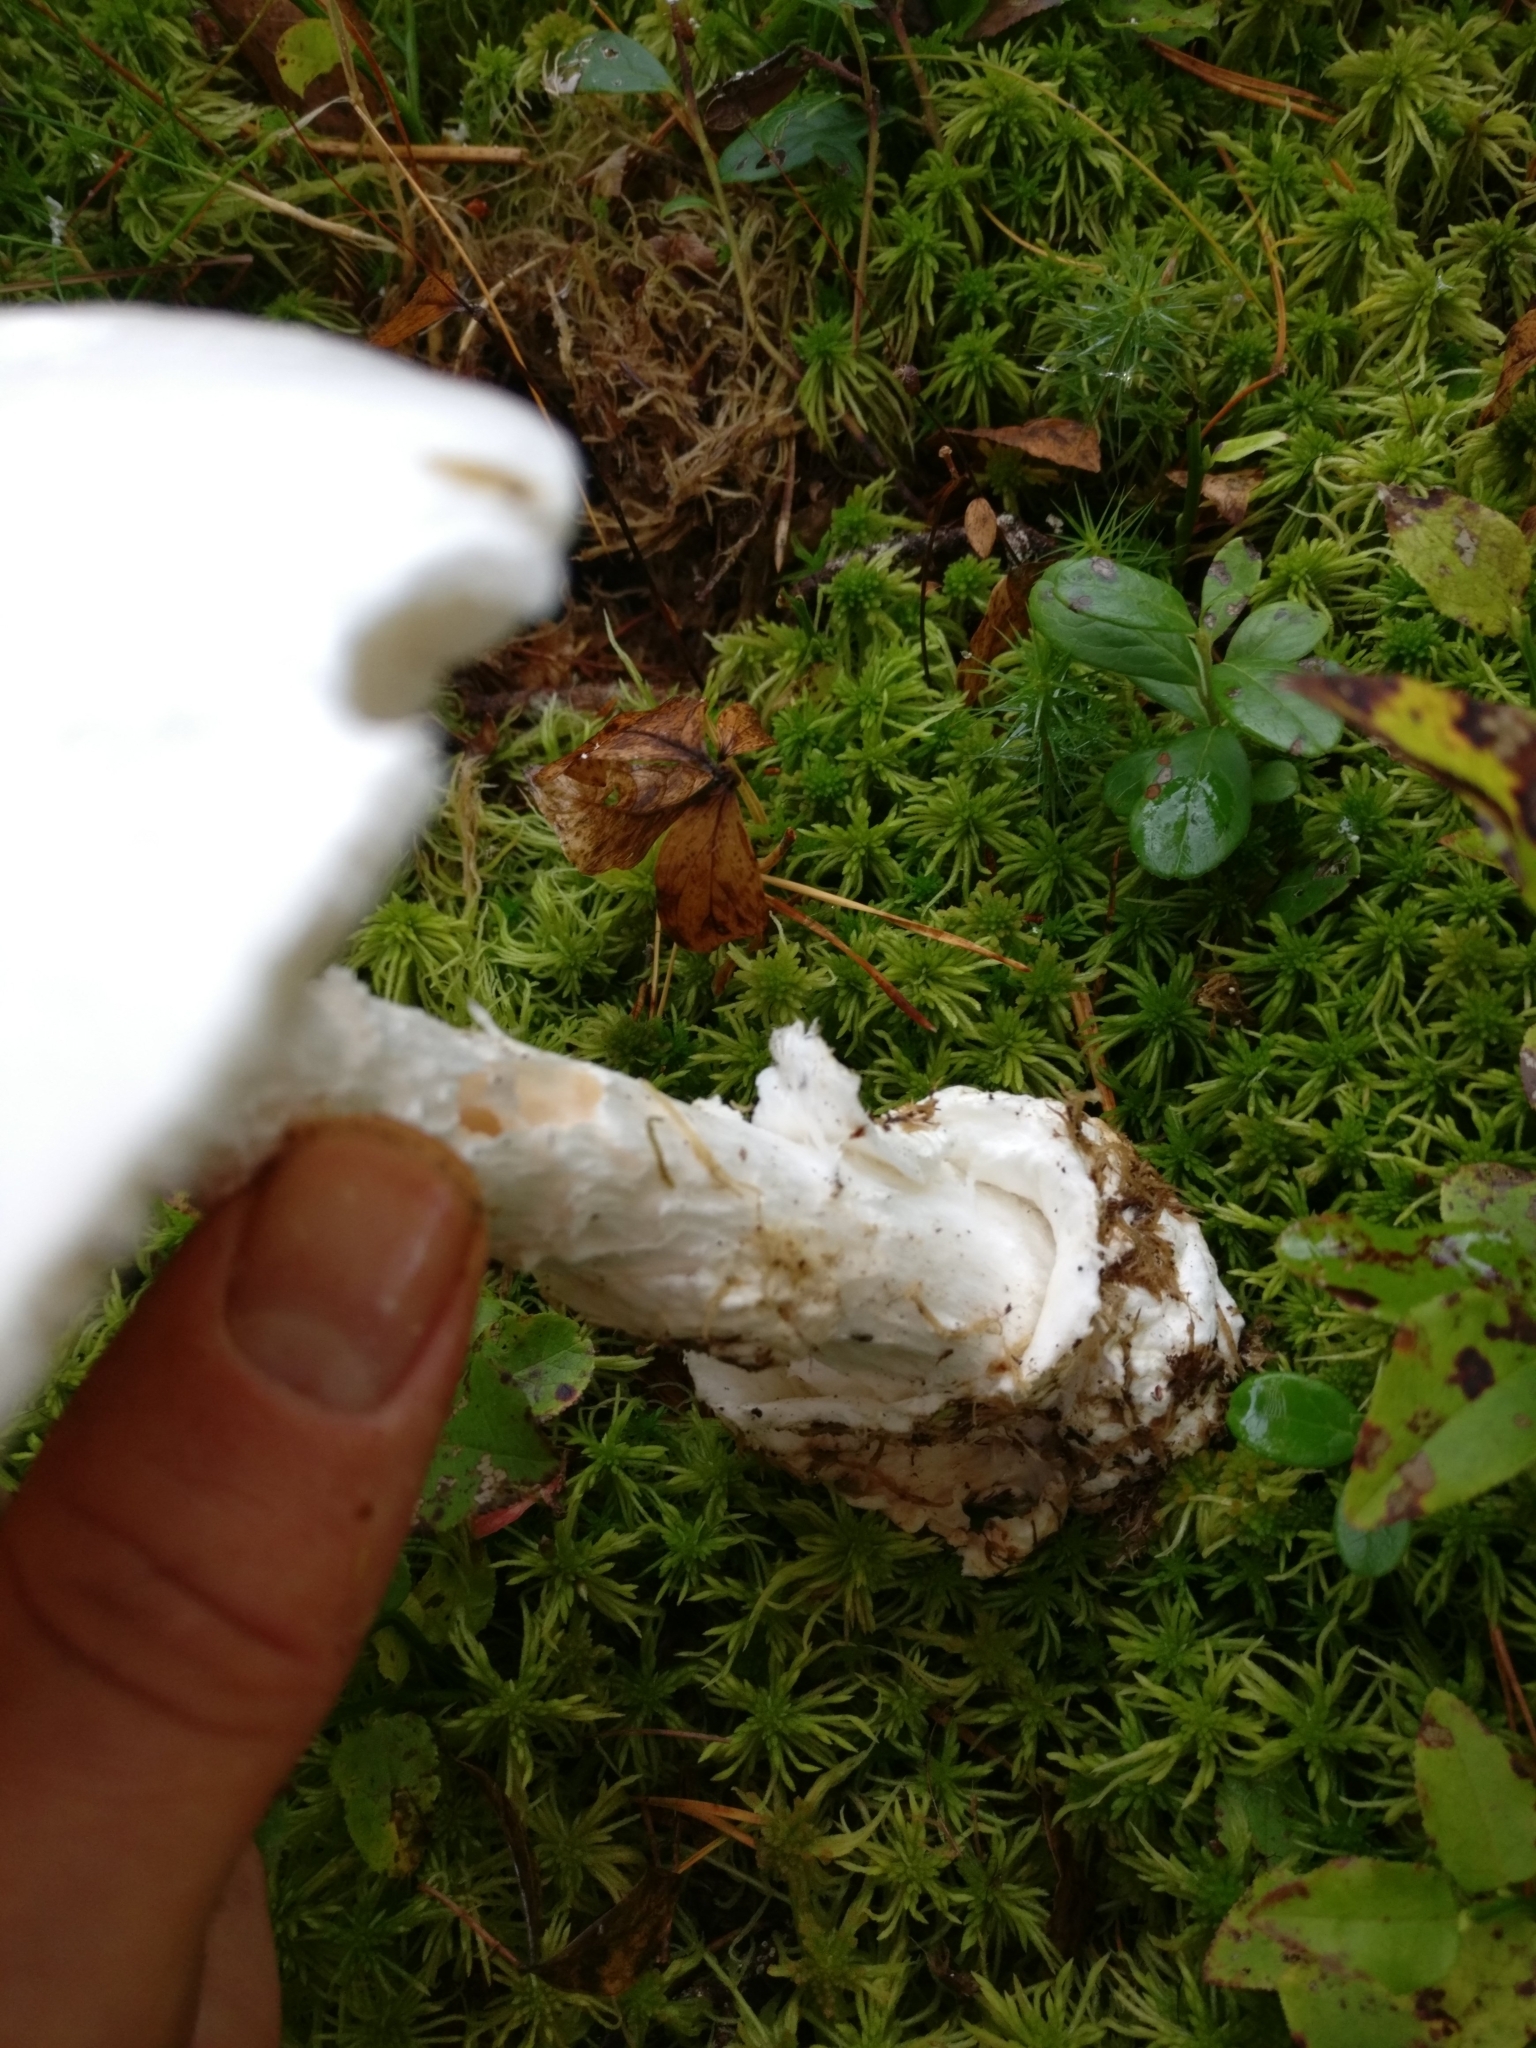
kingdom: Fungi
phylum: Basidiomycota
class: Agaricomycetes
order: Agaricales
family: Amanitaceae
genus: Amanita
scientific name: Amanita virosa
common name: Destroying angel
